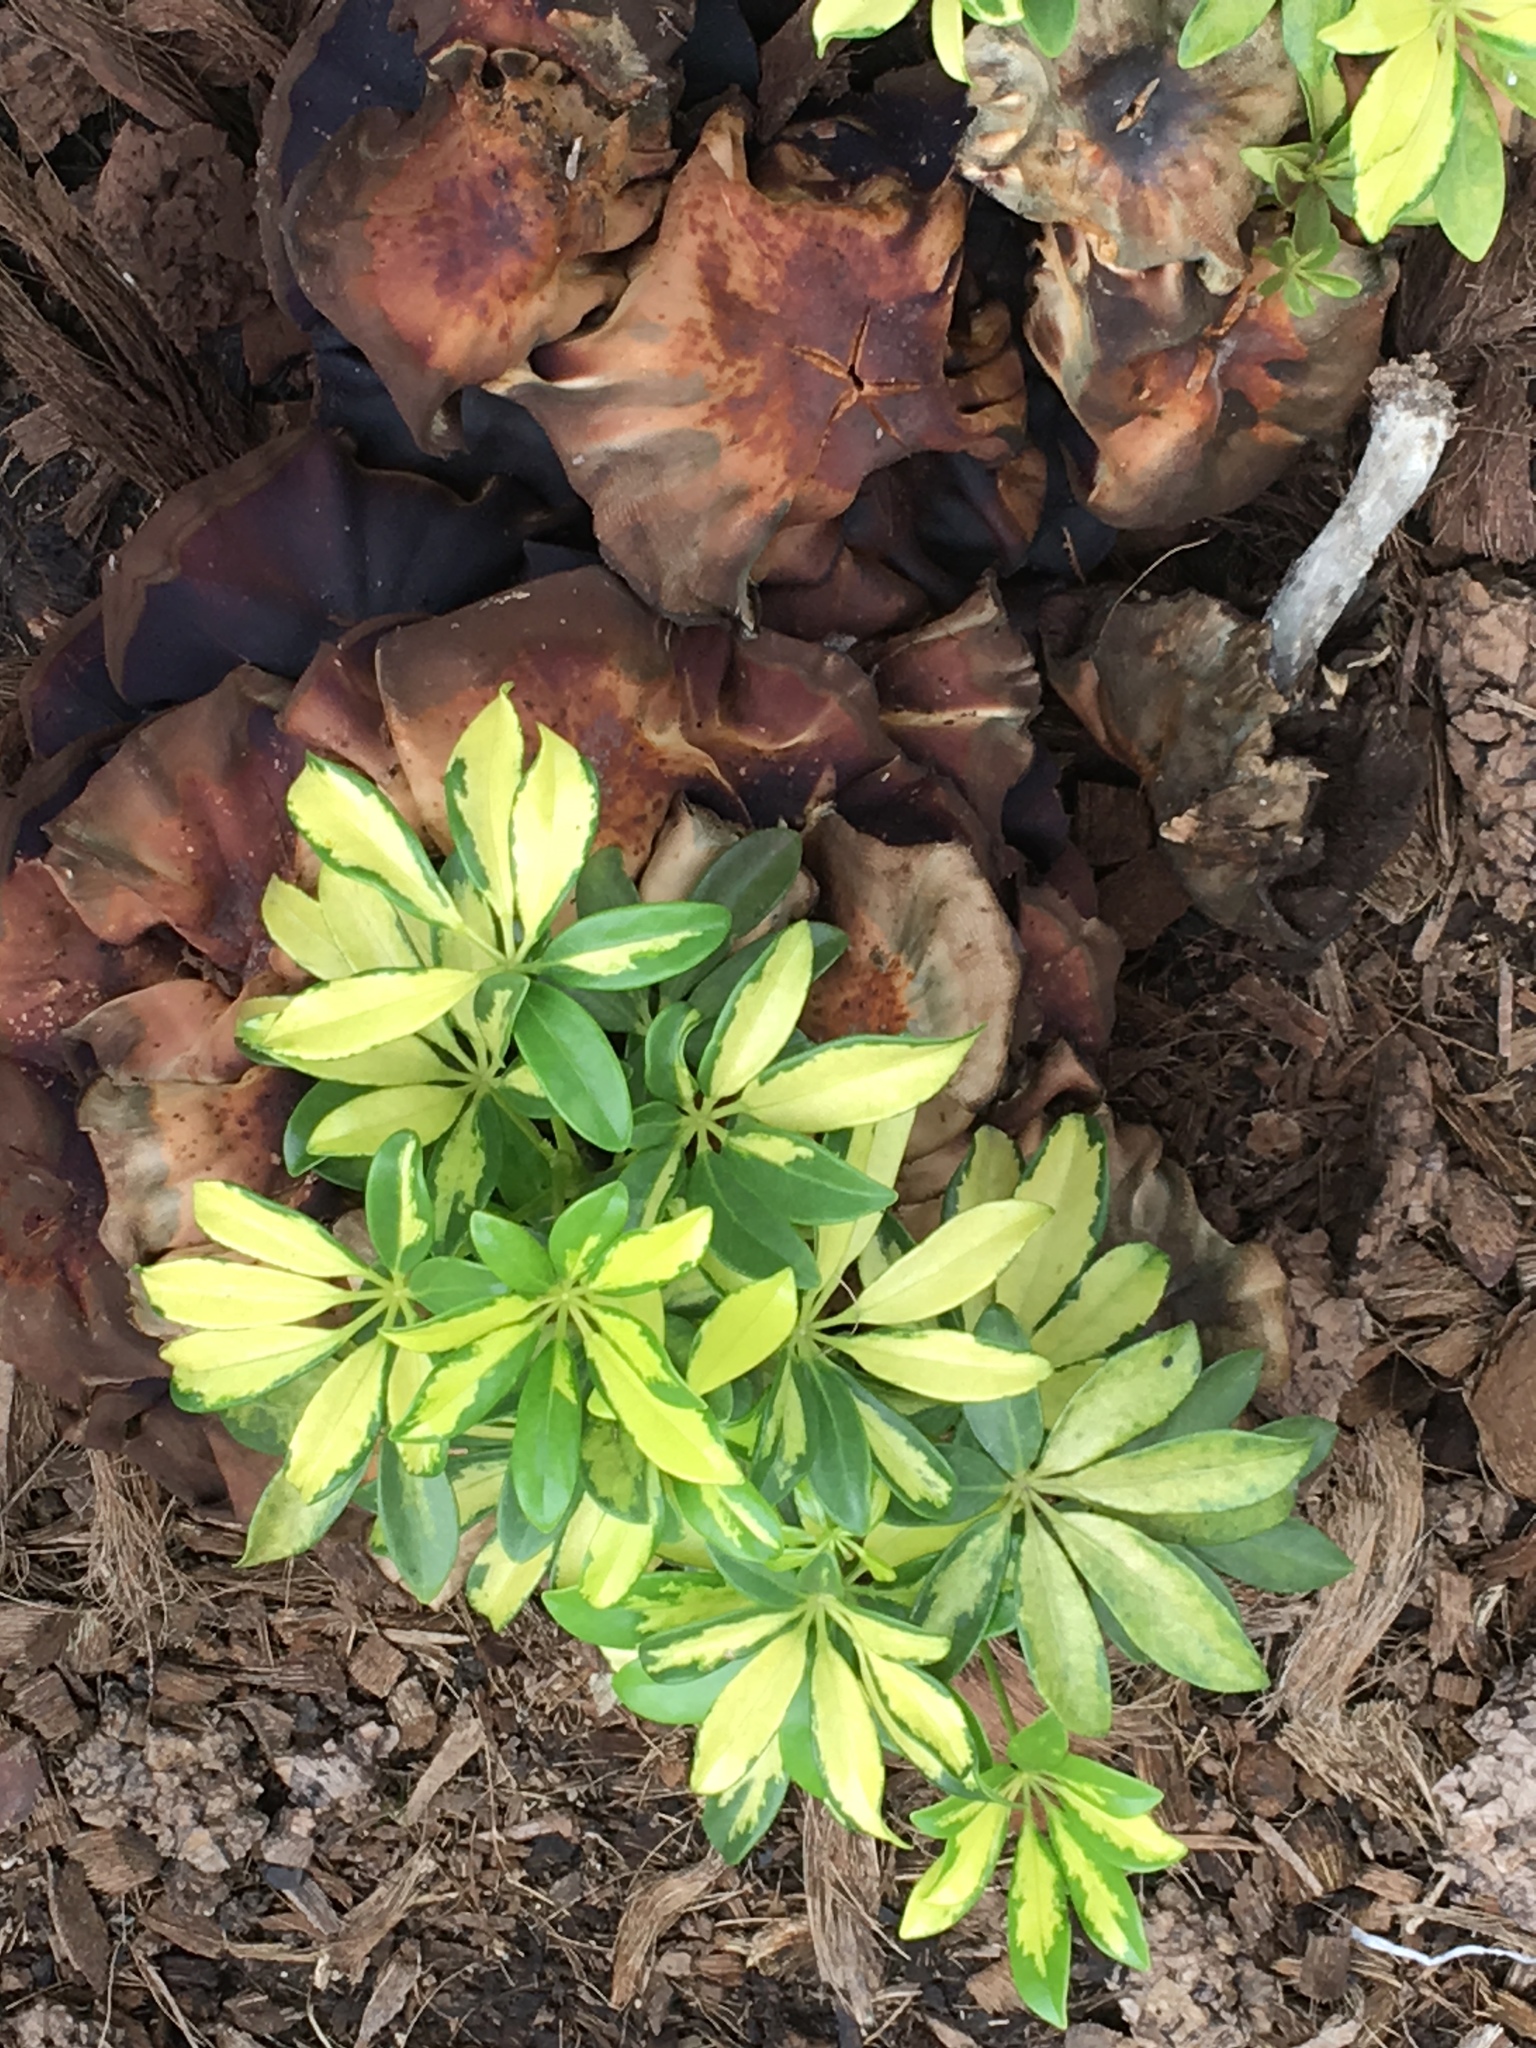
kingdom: Plantae
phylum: Tracheophyta
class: Magnoliopsida
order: Apiales
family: Araliaceae
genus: Heptapleurum
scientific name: Heptapleurum arboricola
